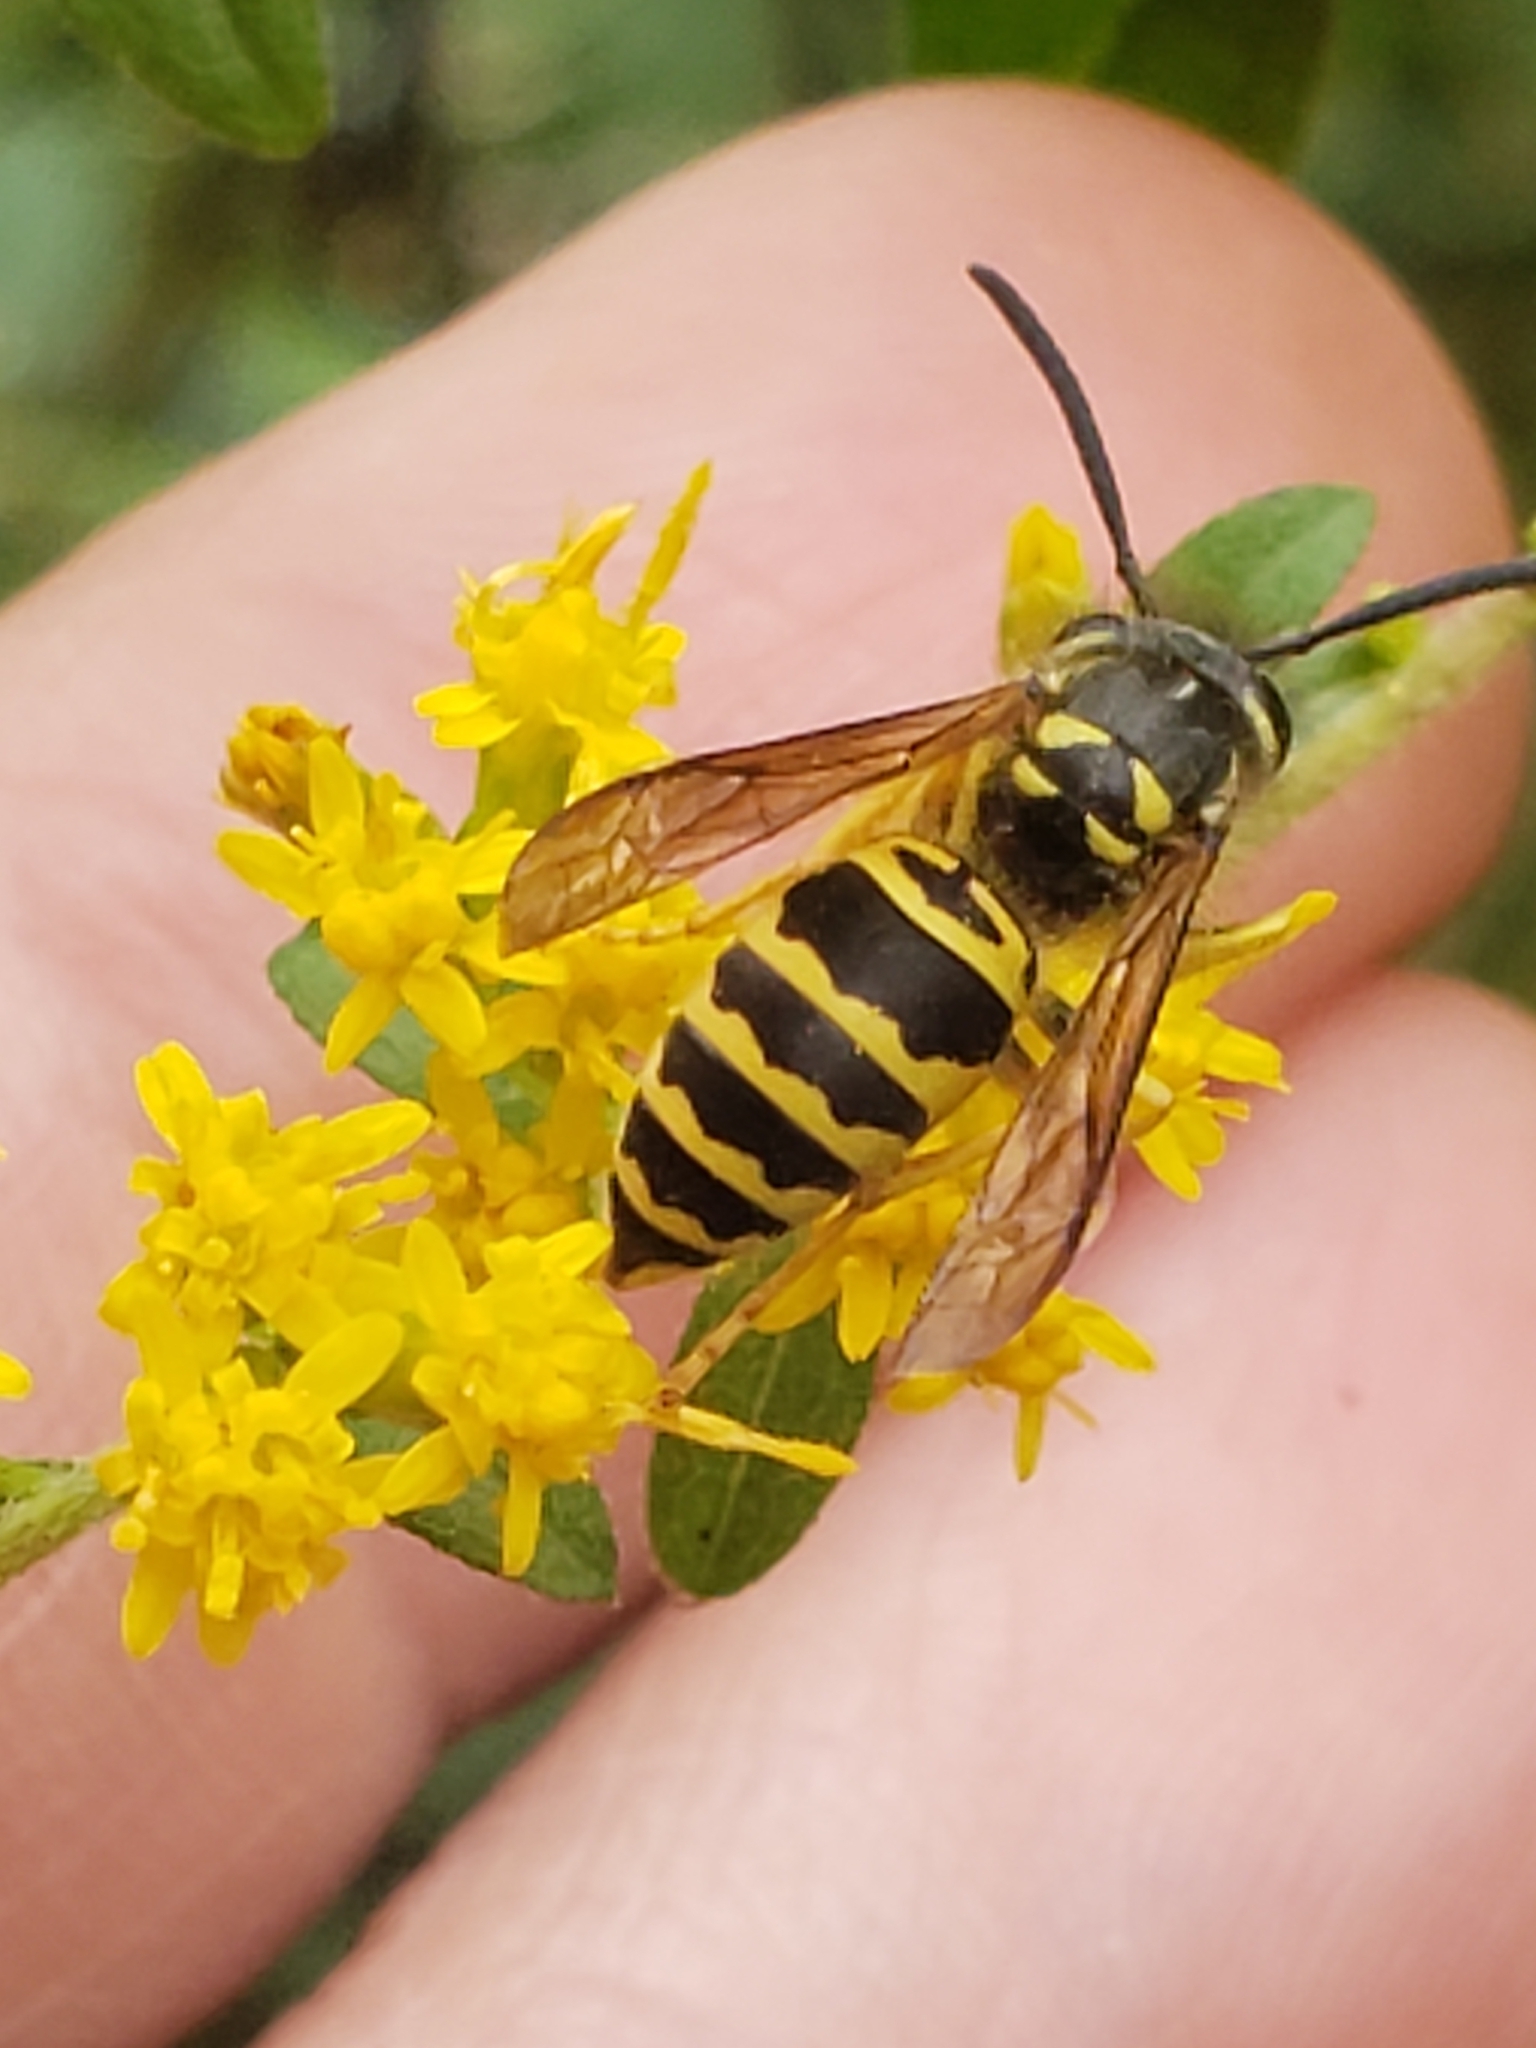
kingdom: Animalia
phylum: Arthropoda
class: Insecta
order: Hymenoptera
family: Vespidae
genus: Vespula
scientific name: Vespula maculifrons
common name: Eastern yellowjacket
